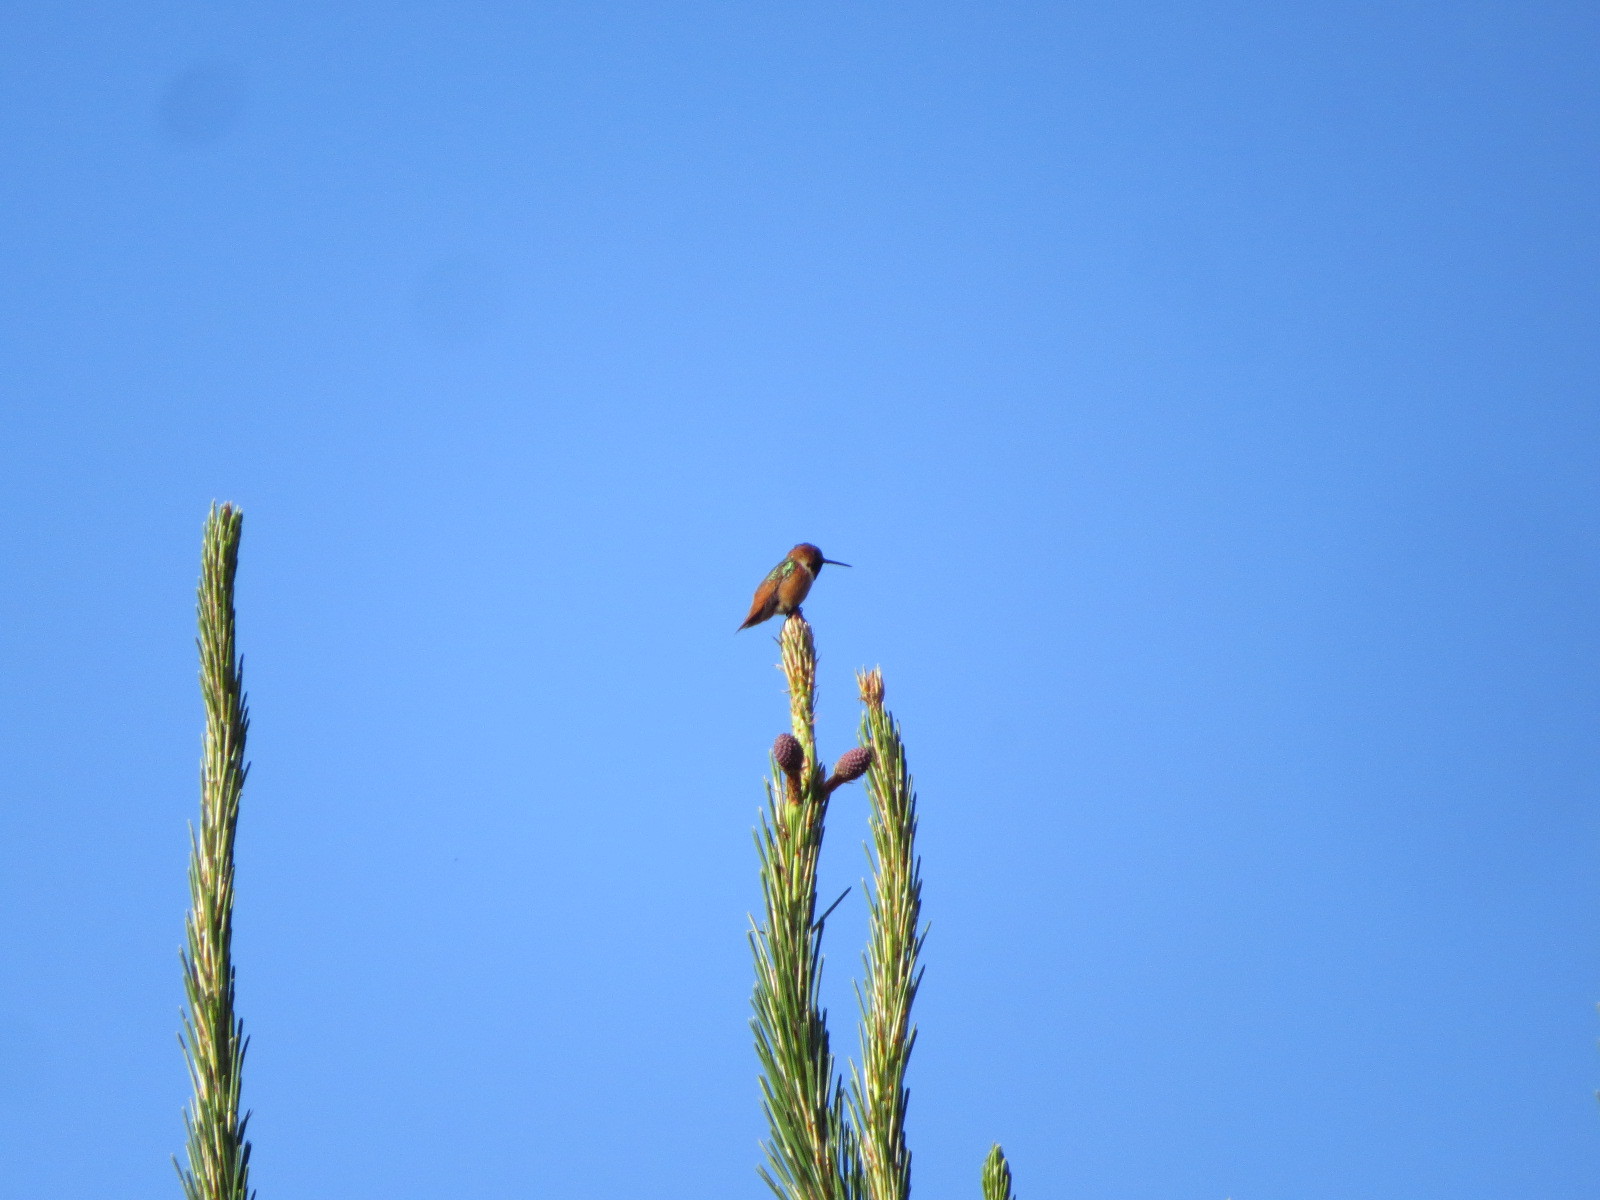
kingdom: Animalia
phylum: Chordata
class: Aves
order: Apodiformes
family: Trochilidae
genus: Selasphorus
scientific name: Selasphorus sasin
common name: Allen's hummingbird
